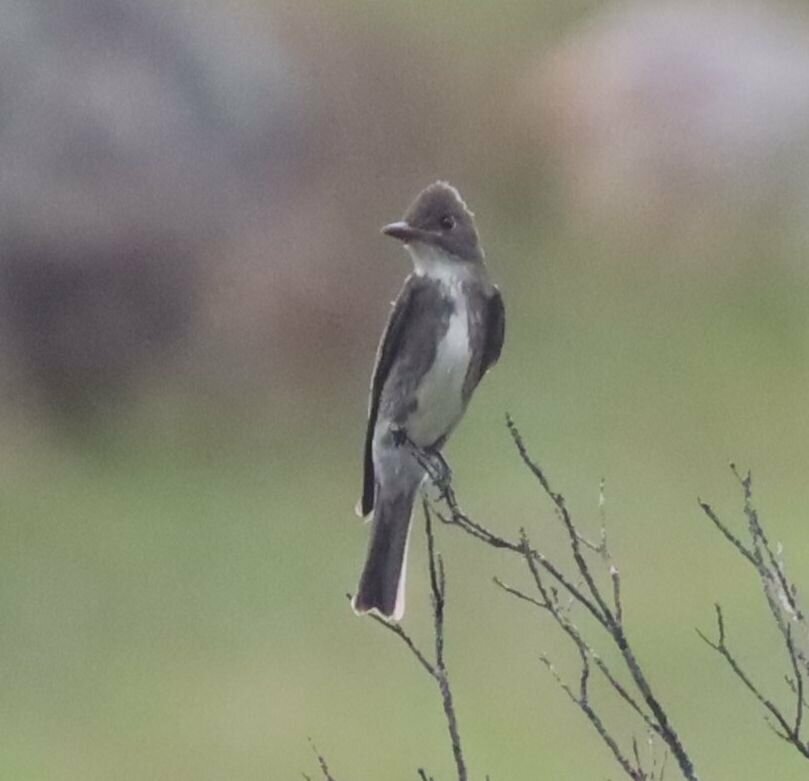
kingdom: Animalia
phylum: Chordata
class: Aves
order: Passeriformes
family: Tyrannidae
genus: Contopus
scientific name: Contopus cooperi
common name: Olive-sided flycatcher
